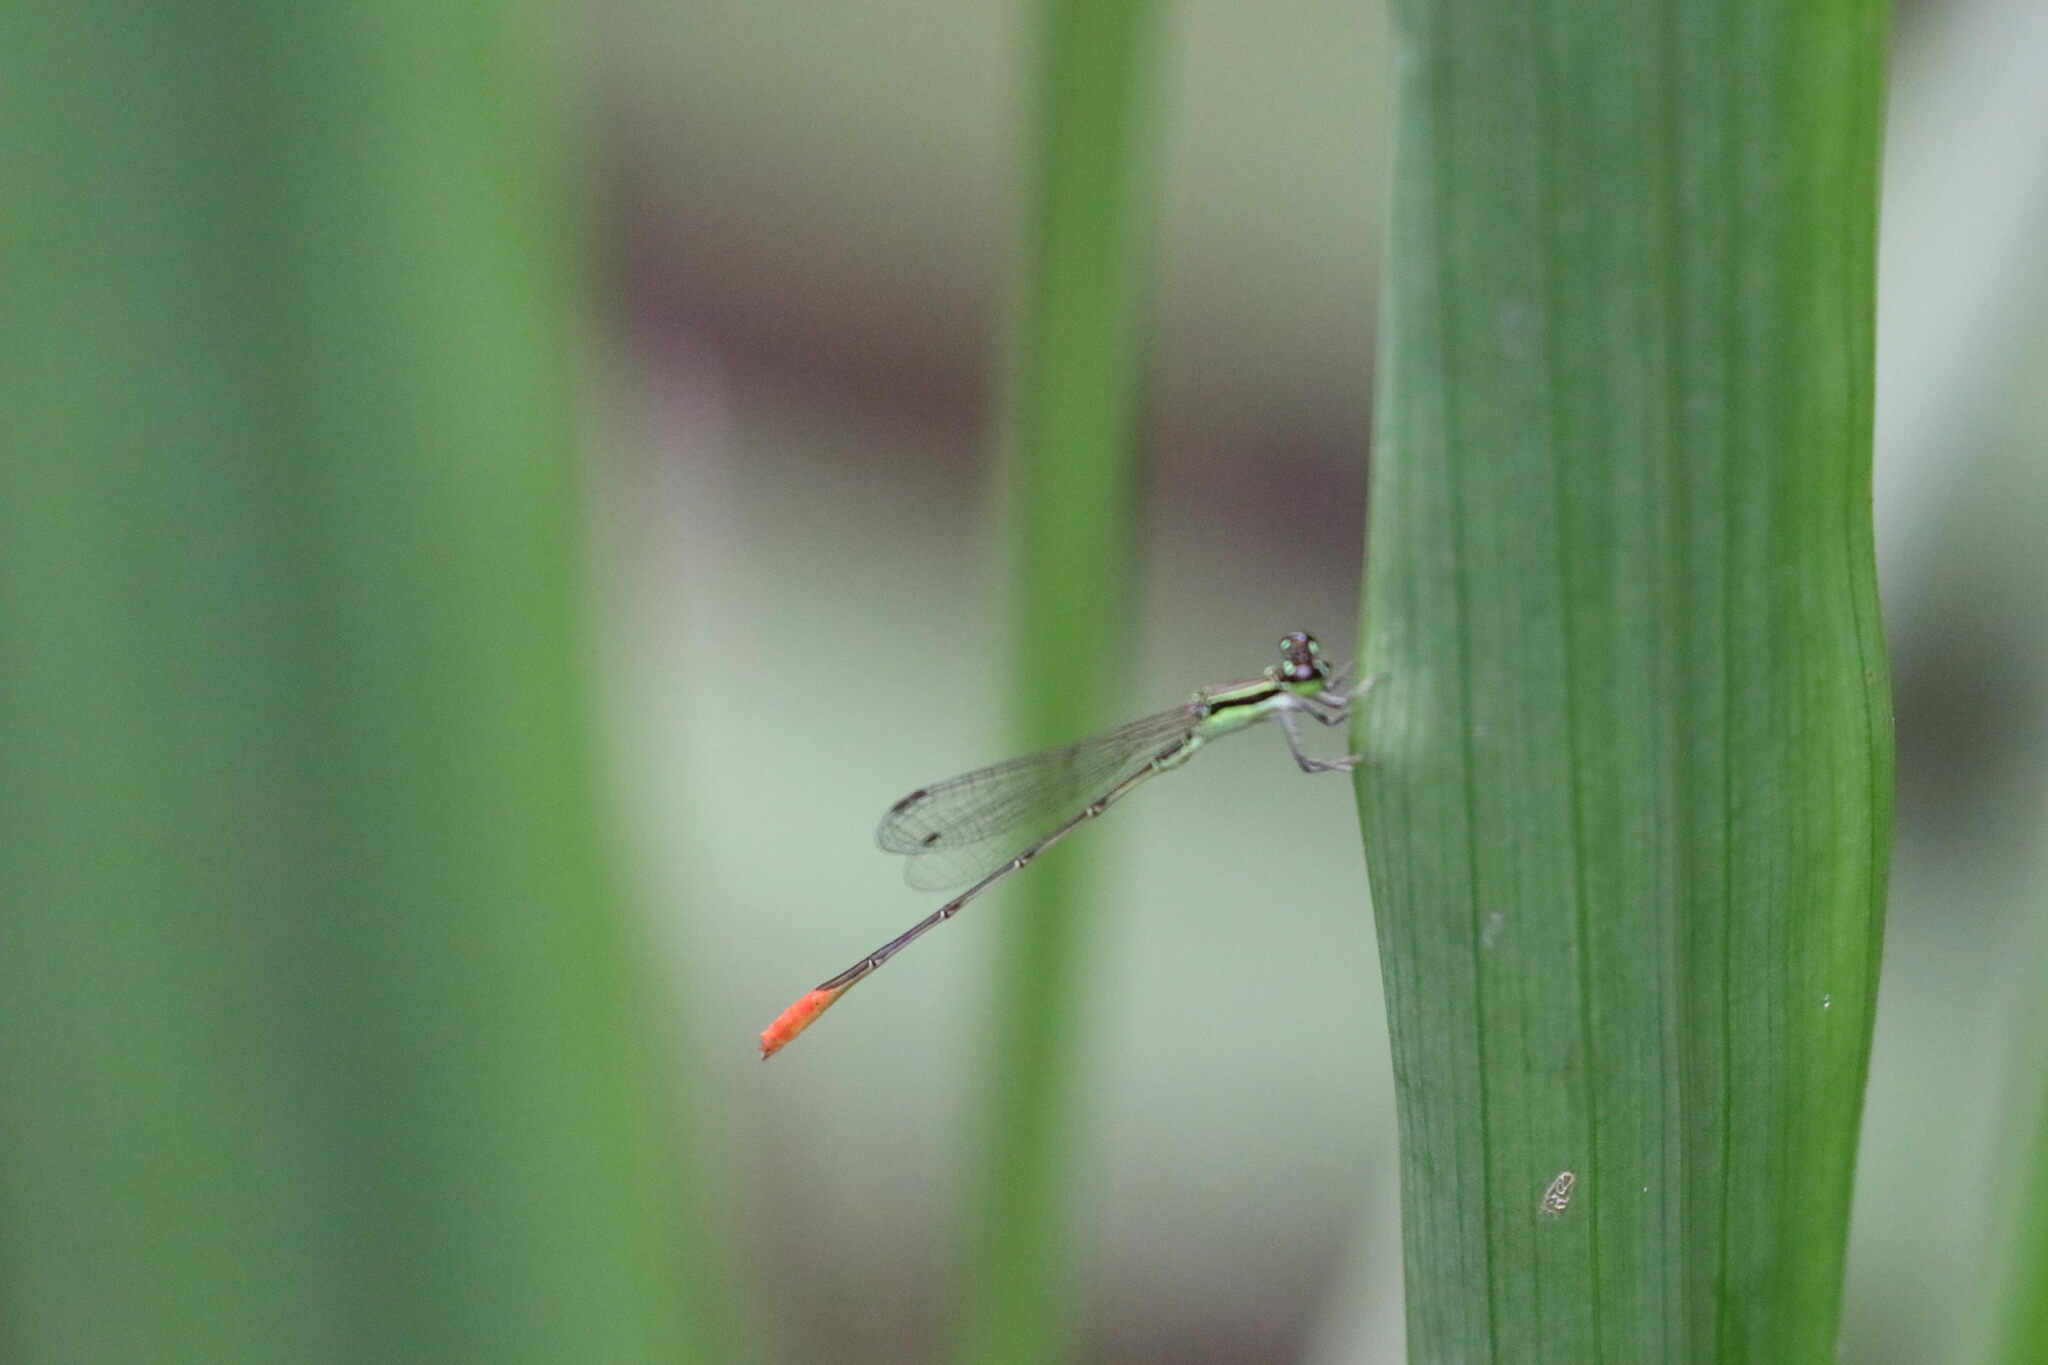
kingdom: Animalia
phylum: Arthropoda
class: Insecta
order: Odonata
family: Coenagrionidae
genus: Agriocnemis
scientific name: Agriocnemis femina
